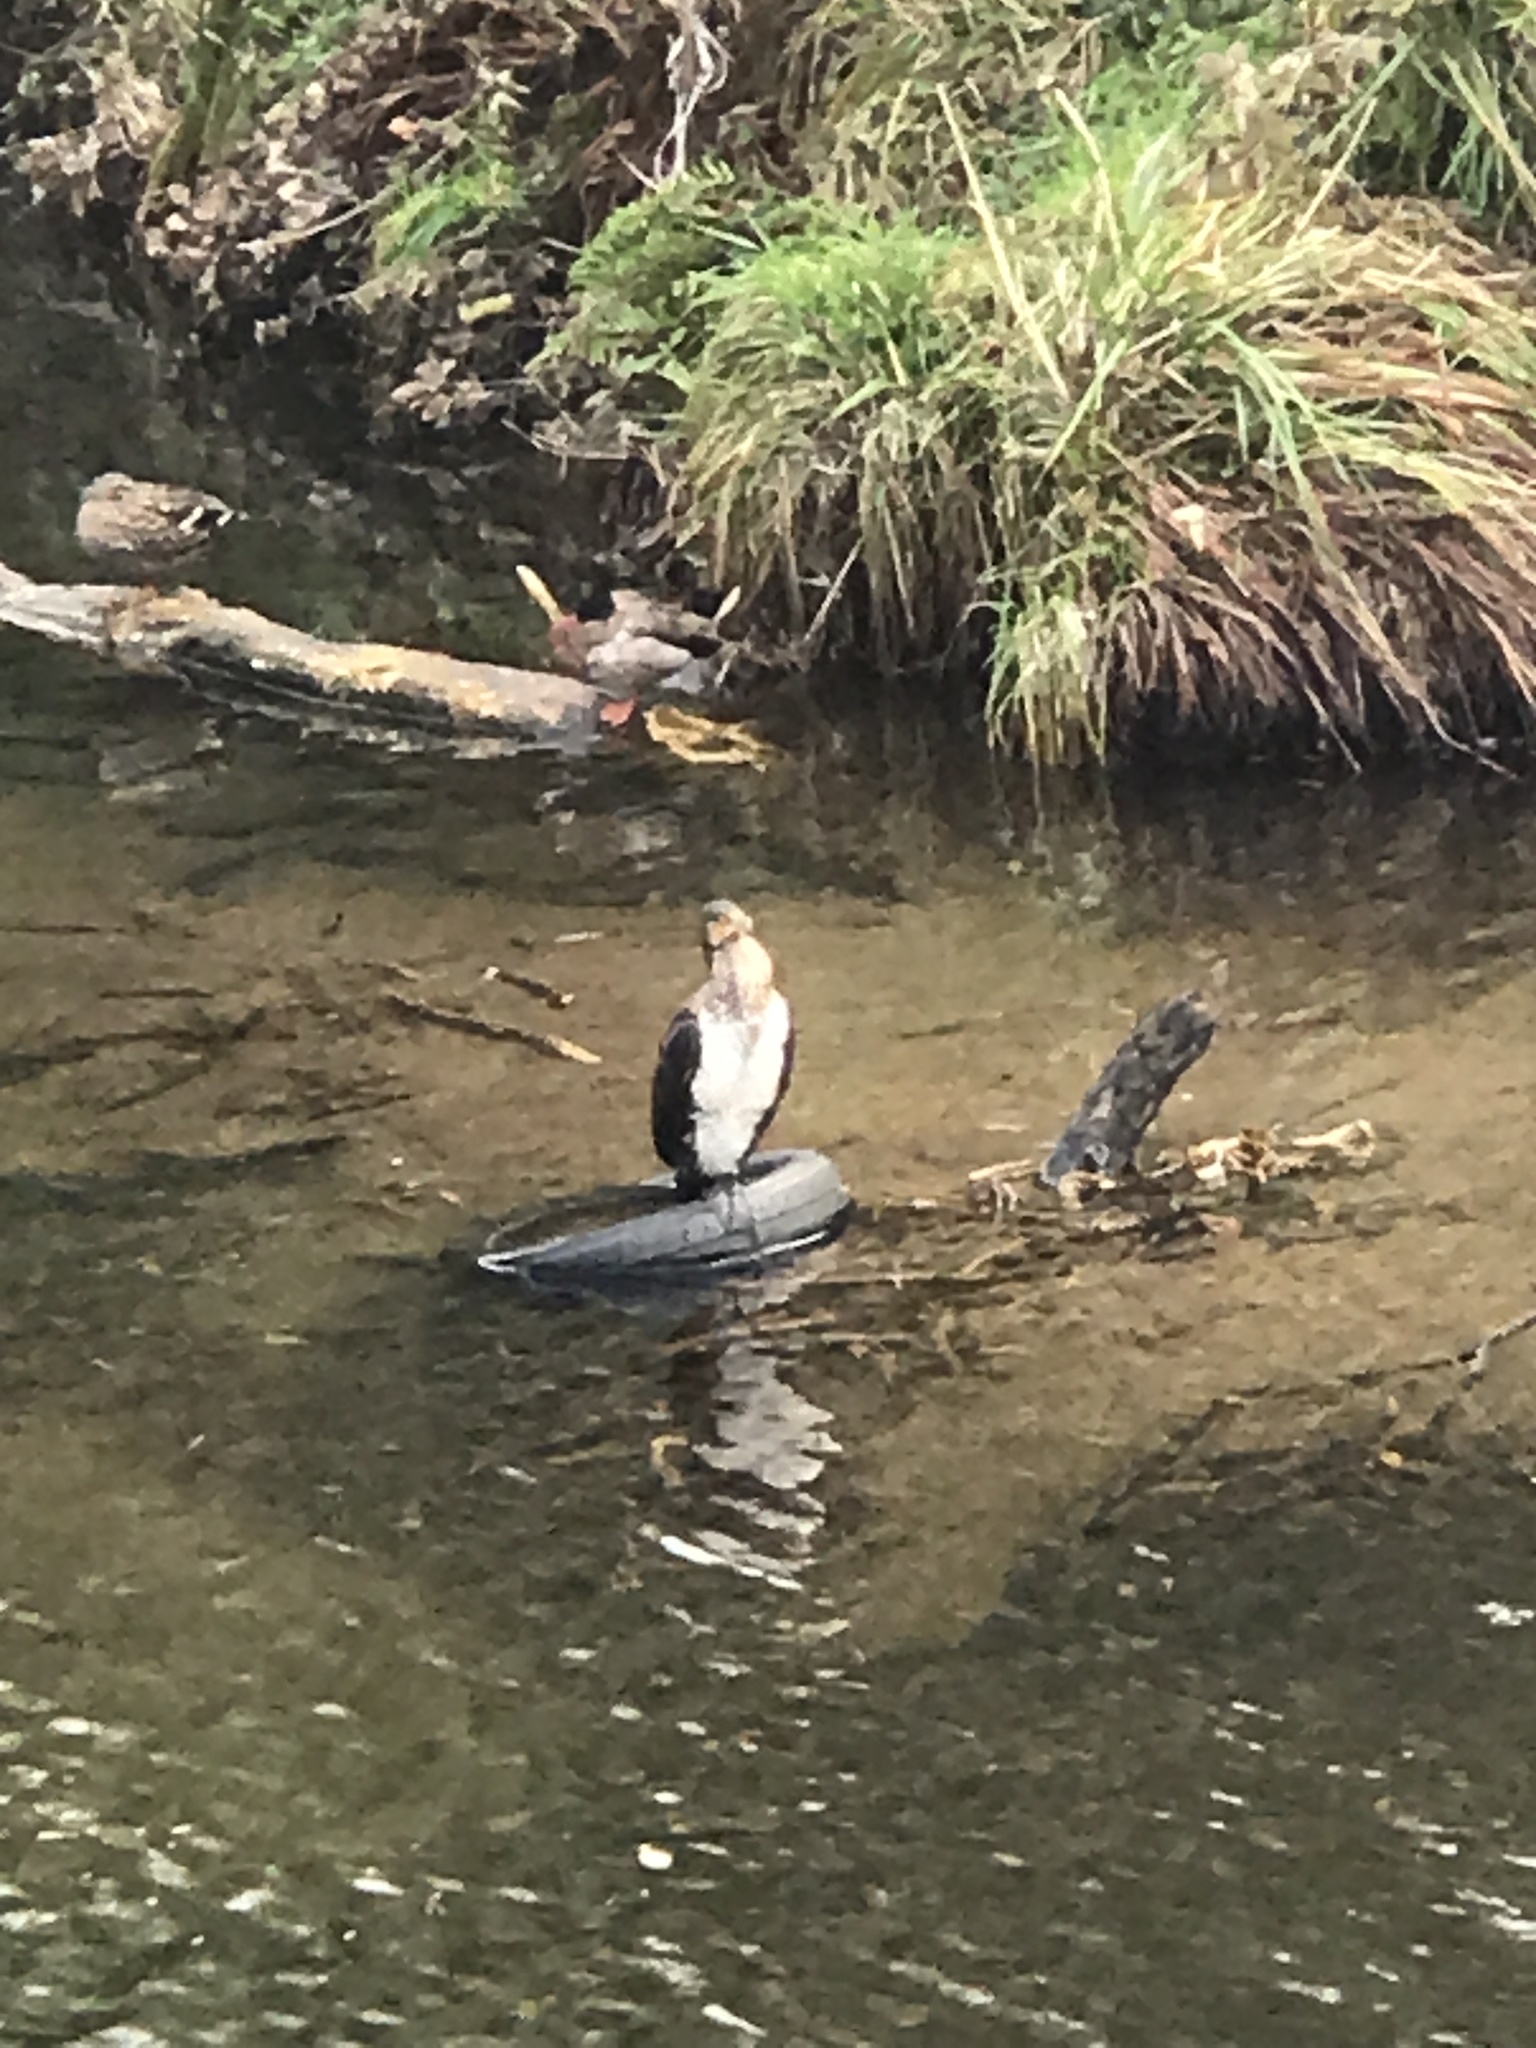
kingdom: Animalia
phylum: Chordata
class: Aves
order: Suliformes
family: Phalacrocoracidae
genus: Phalacrocorax
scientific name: Phalacrocorax varius
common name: Pied cormorant
